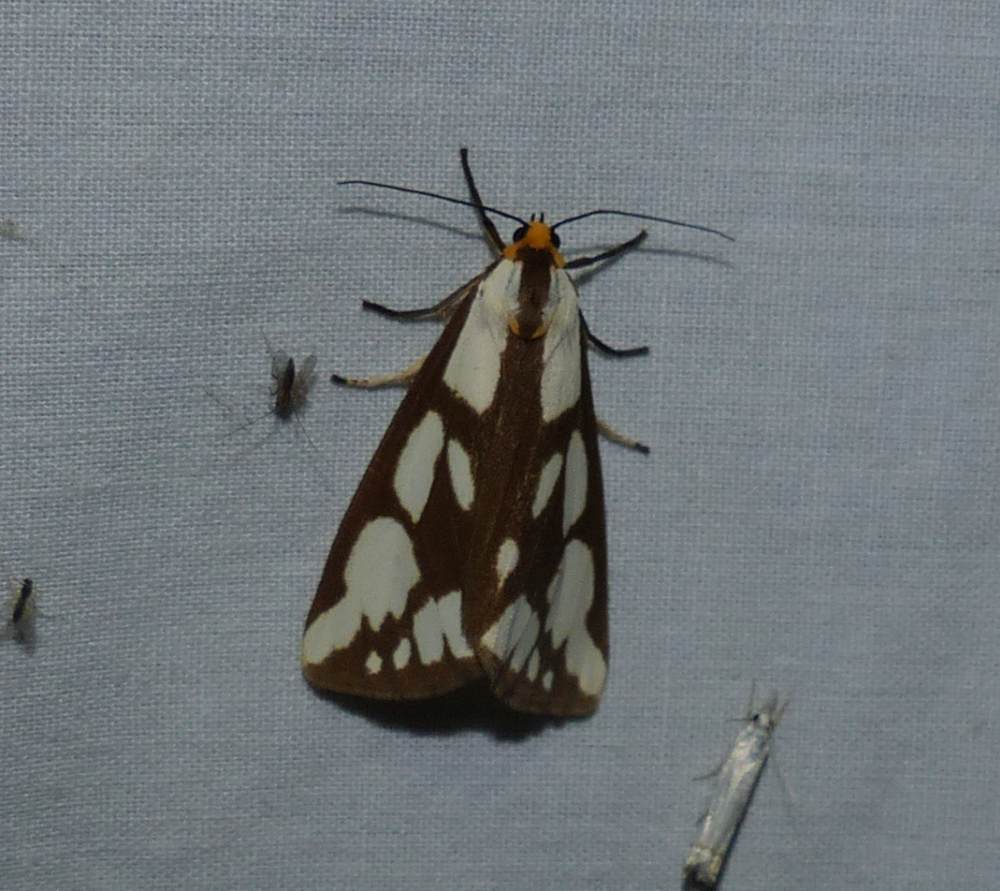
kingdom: Animalia
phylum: Arthropoda
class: Insecta
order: Lepidoptera
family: Erebidae
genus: Haploa
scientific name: Haploa confusa
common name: Confused haploa moth
